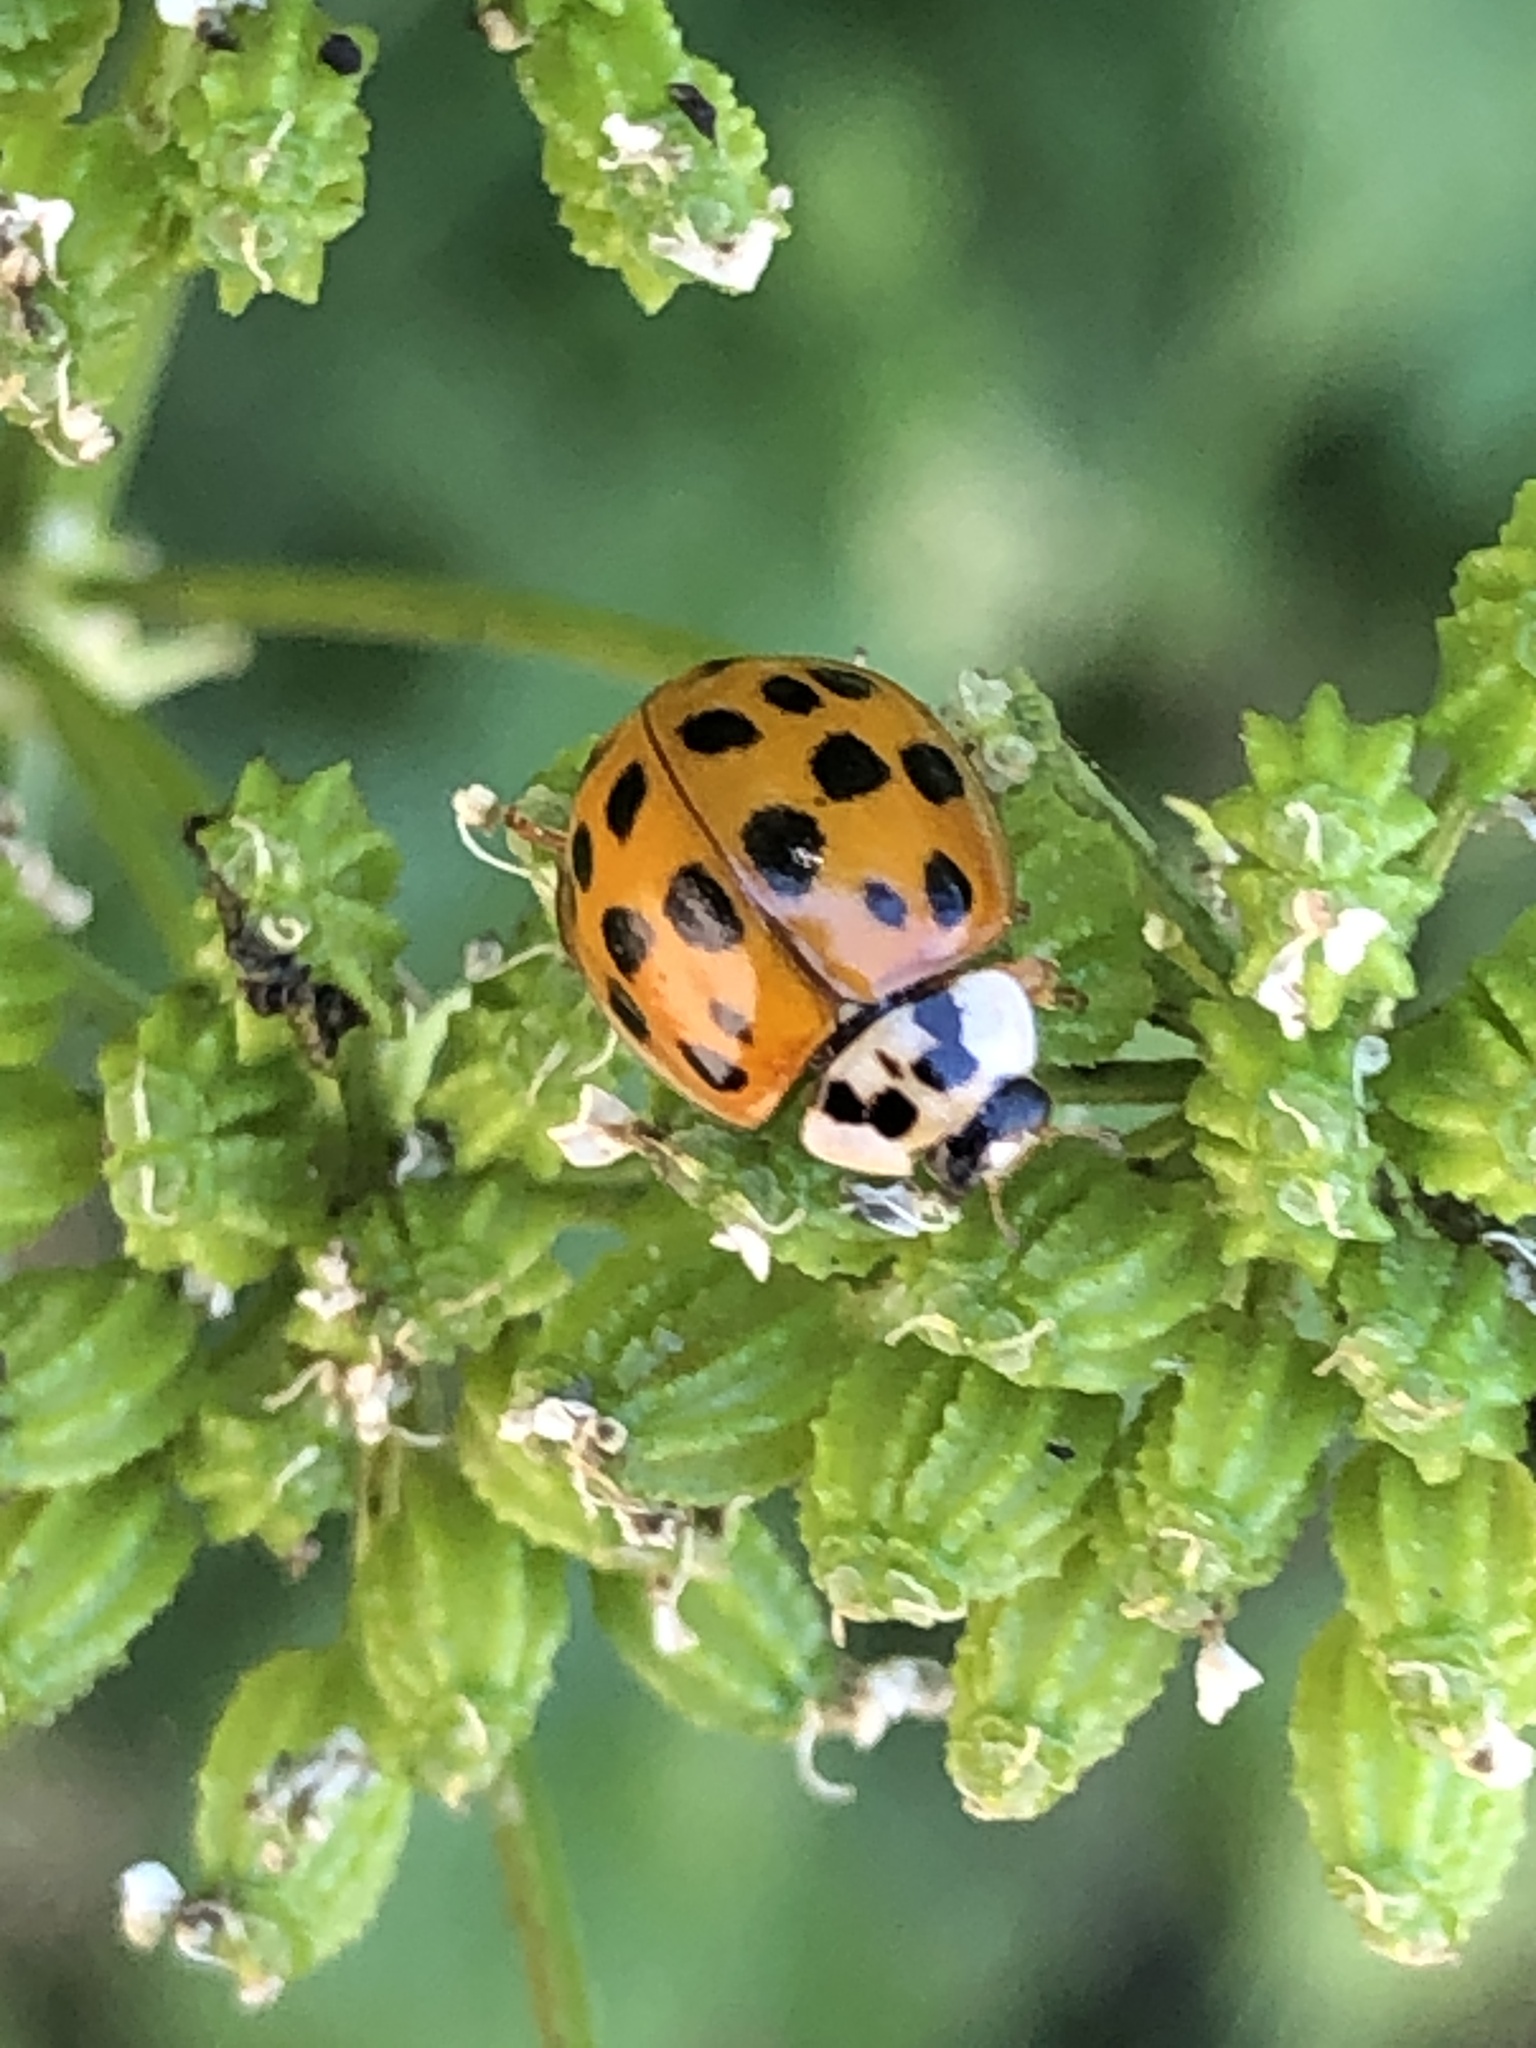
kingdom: Animalia
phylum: Arthropoda
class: Insecta
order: Coleoptera
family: Coccinellidae
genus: Harmonia
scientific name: Harmonia axyridis
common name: Harlequin ladybird
